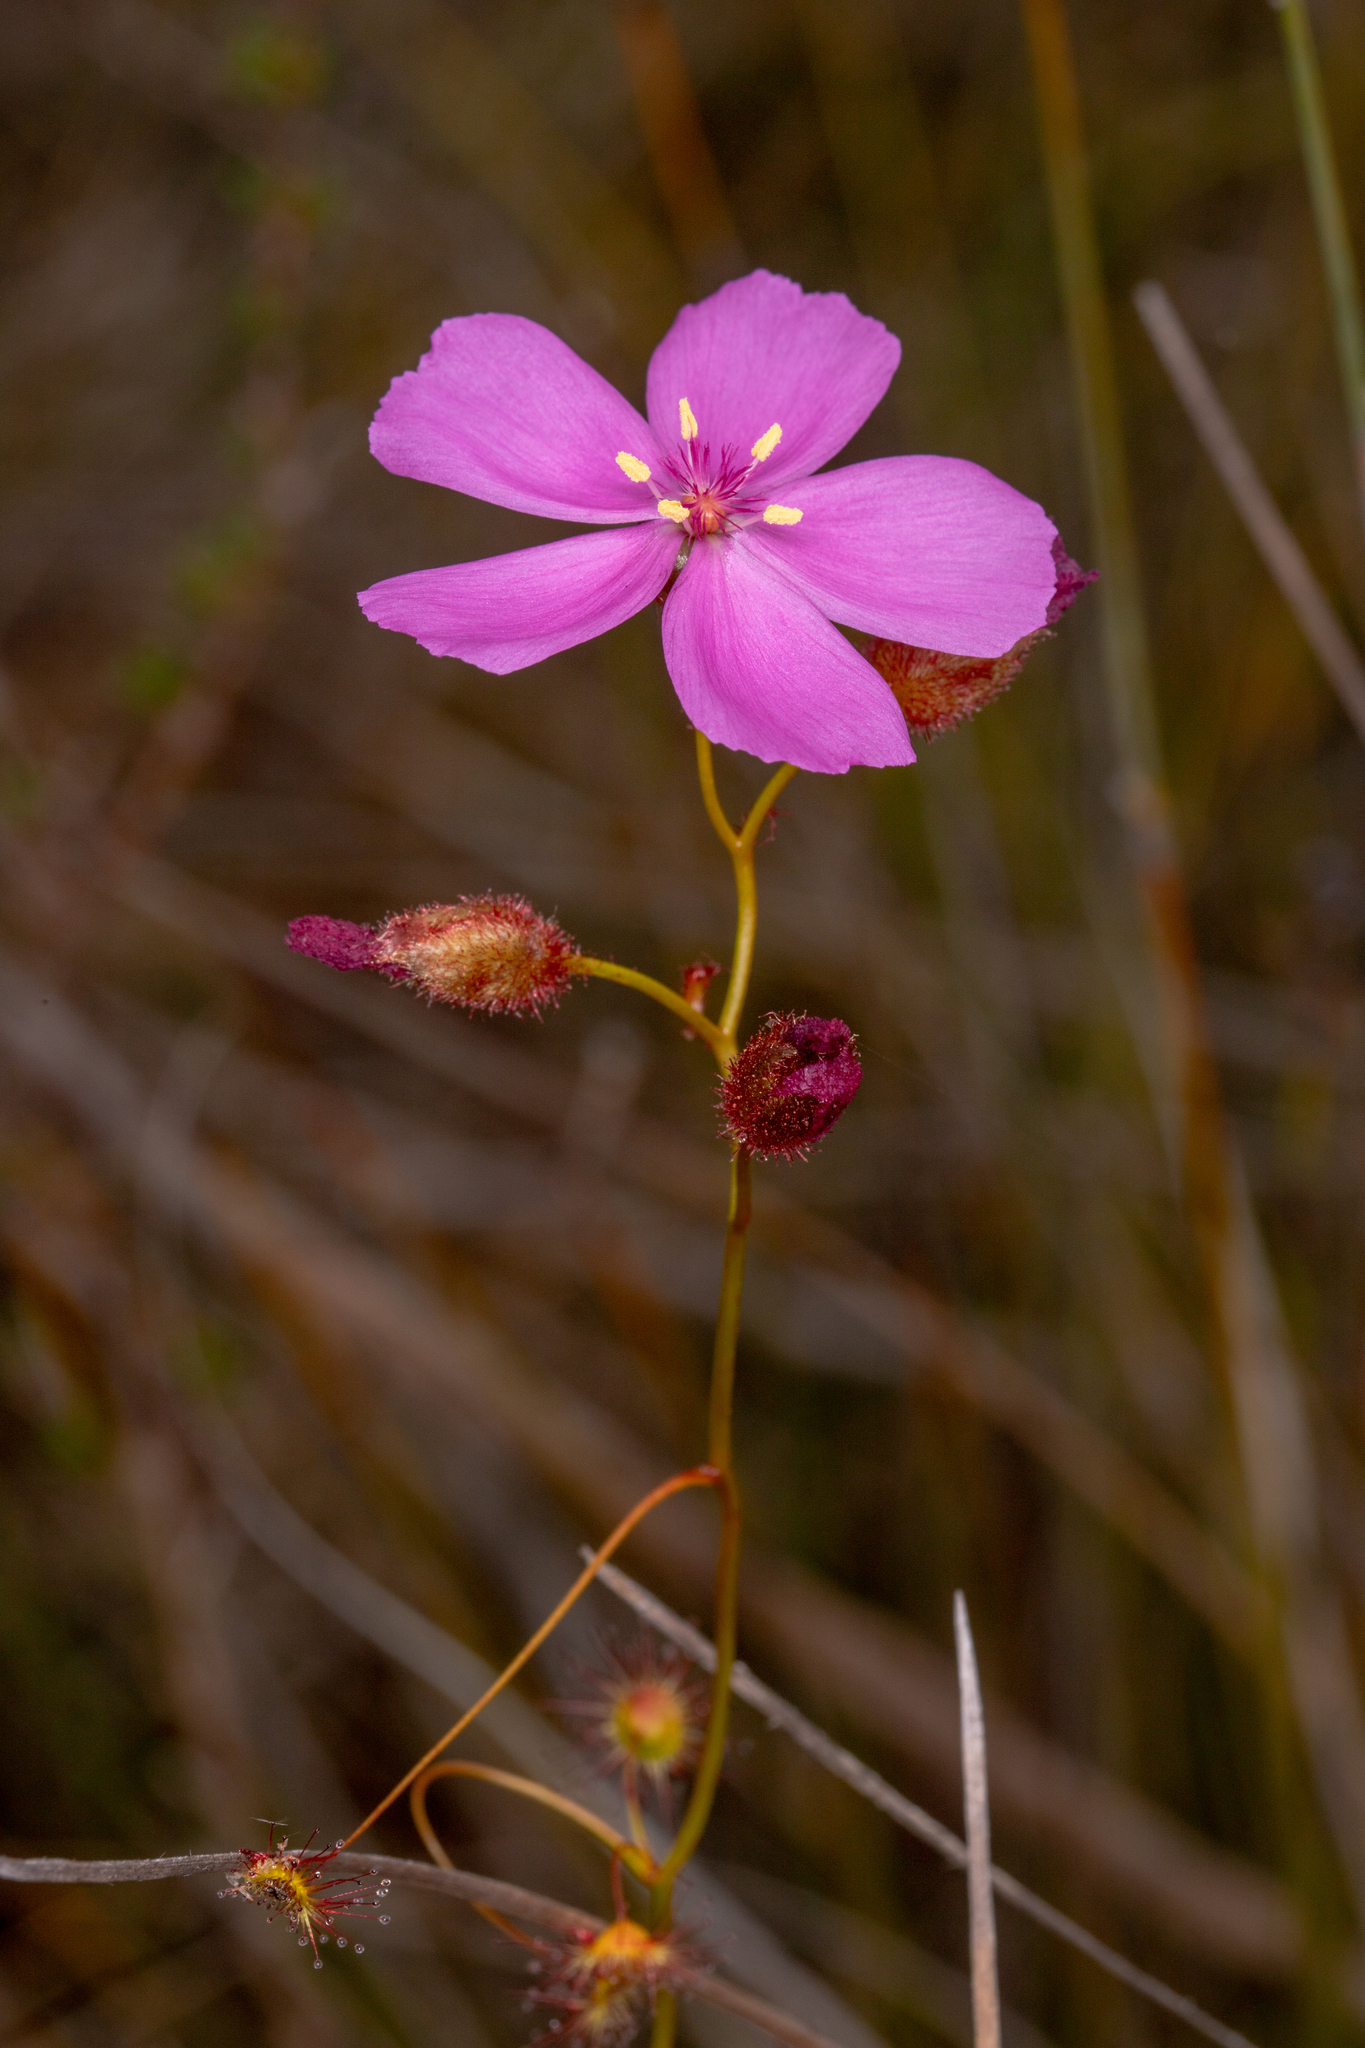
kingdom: Plantae
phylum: Tracheophyta
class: Magnoliopsida
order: Caryophyllales
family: Droseraceae
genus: Drosera
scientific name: Drosera
